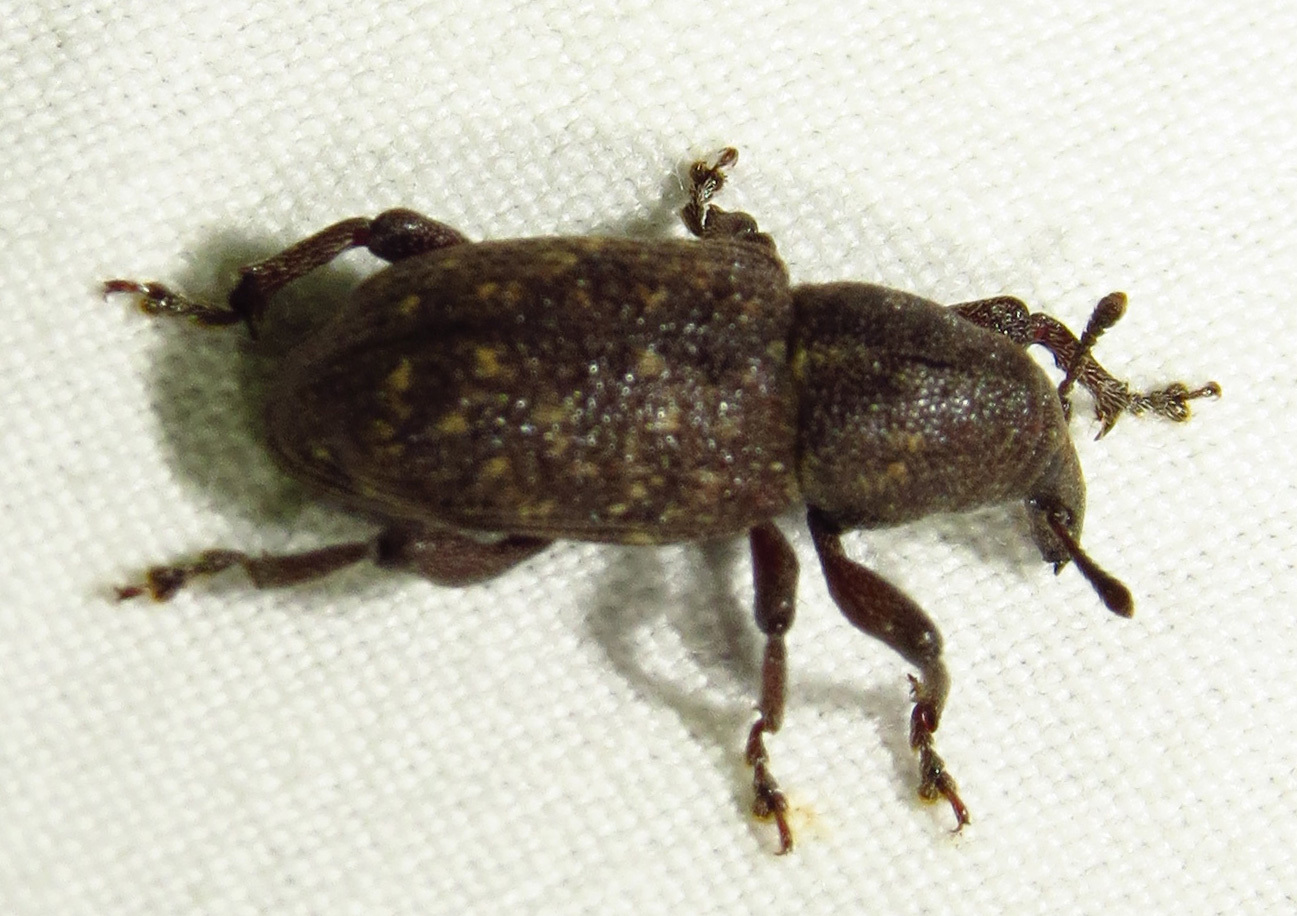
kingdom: Animalia
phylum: Arthropoda
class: Insecta
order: Coleoptera
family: Curculionidae
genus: Pachylobius
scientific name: Pachylobius picivorus
